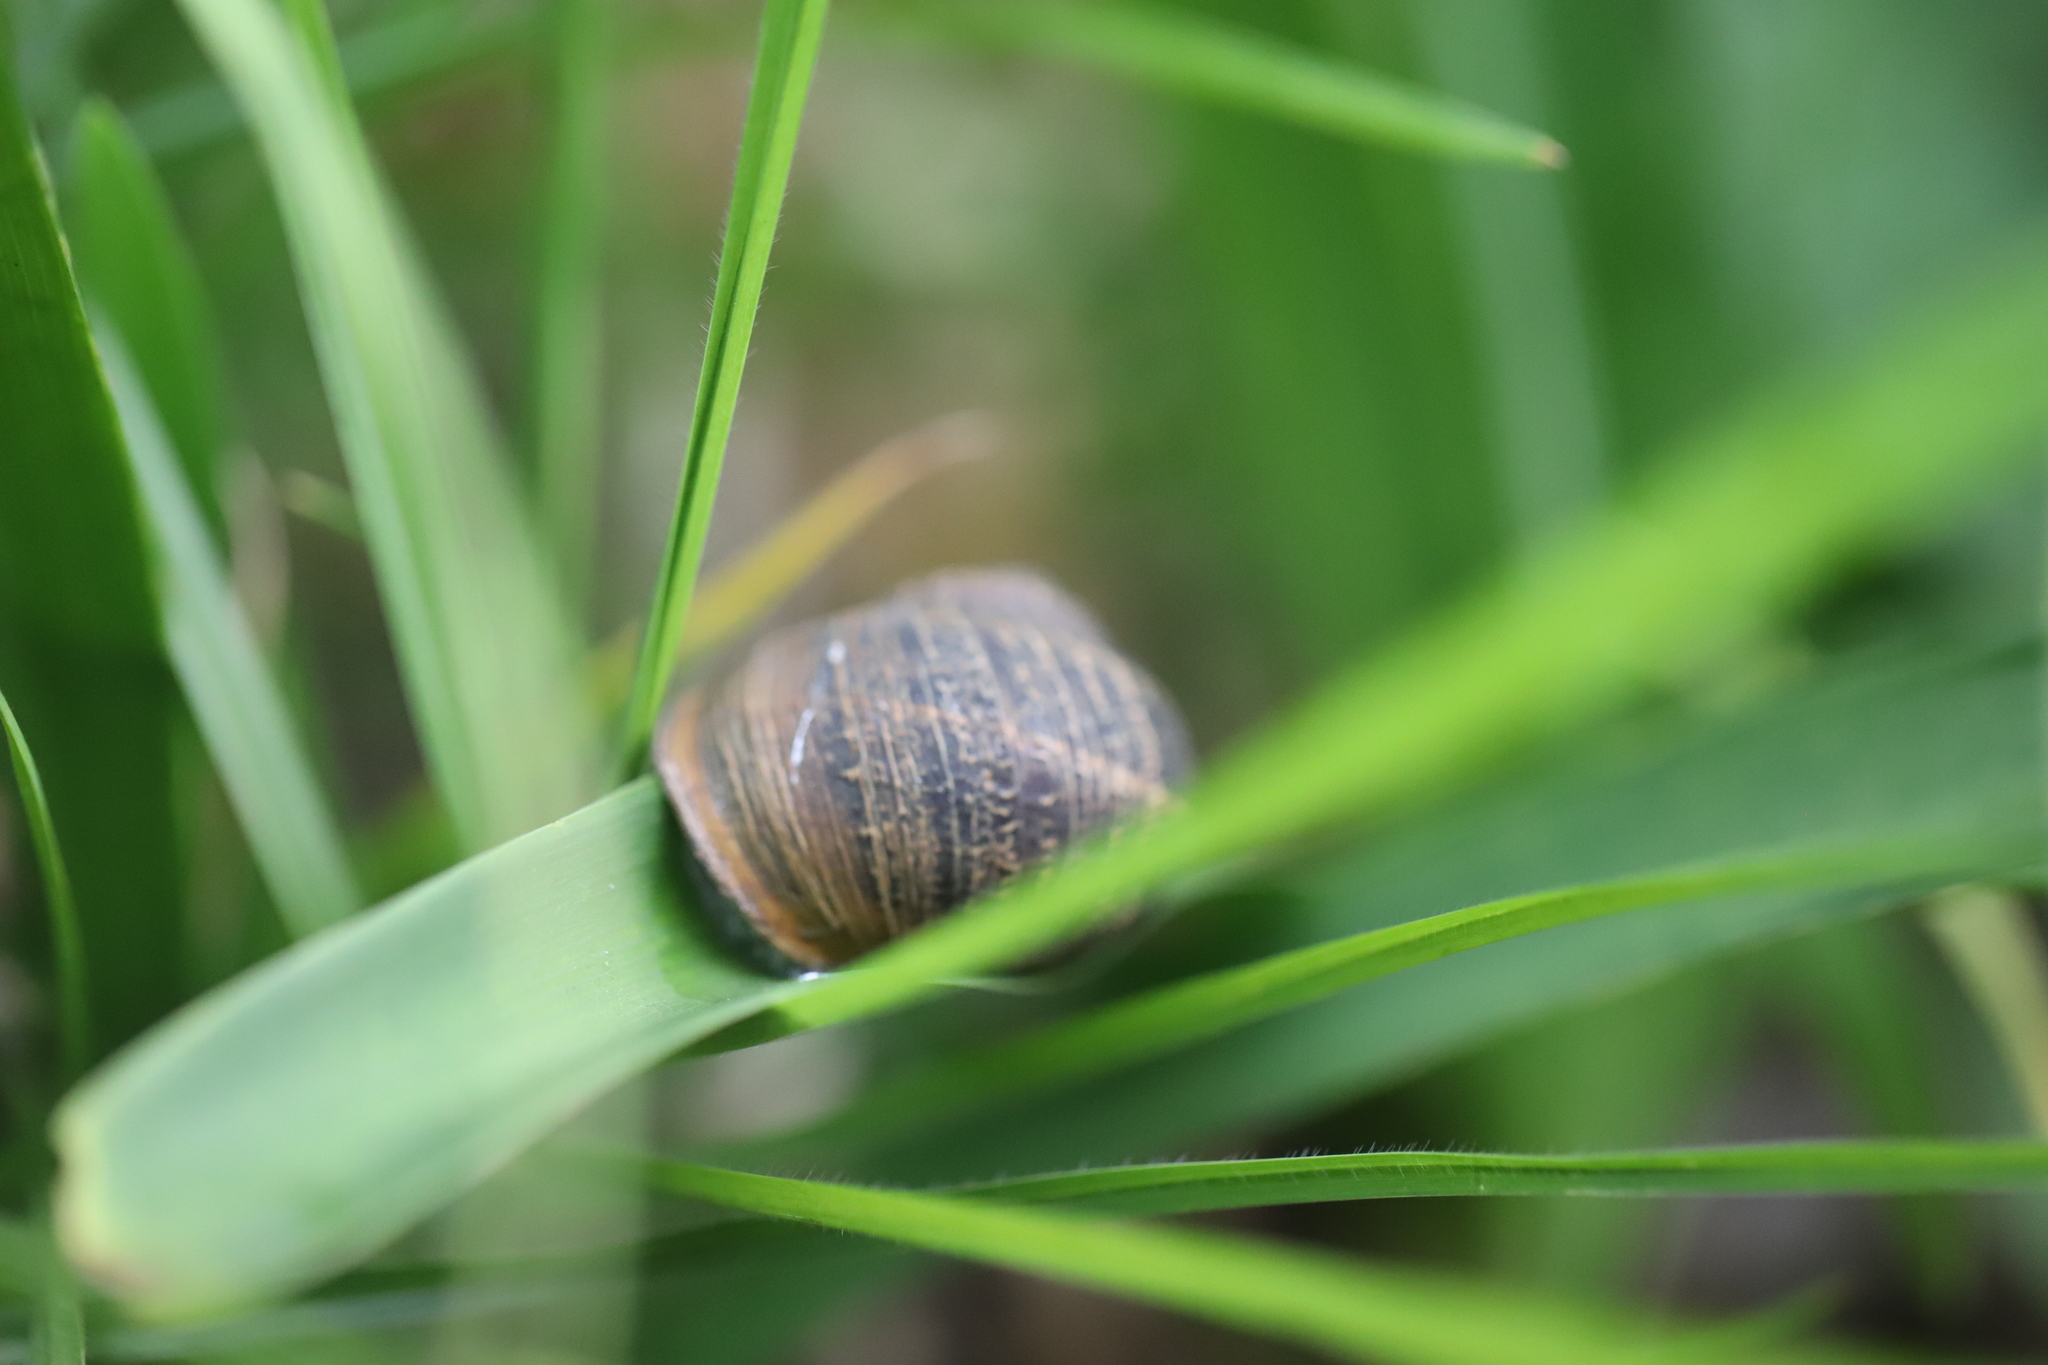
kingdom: Animalia
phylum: Mollusca
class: Gastropoda
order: Stylommatophora
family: Helicidae
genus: Cornu
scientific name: Cornu aspersum
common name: Brown garden snail
